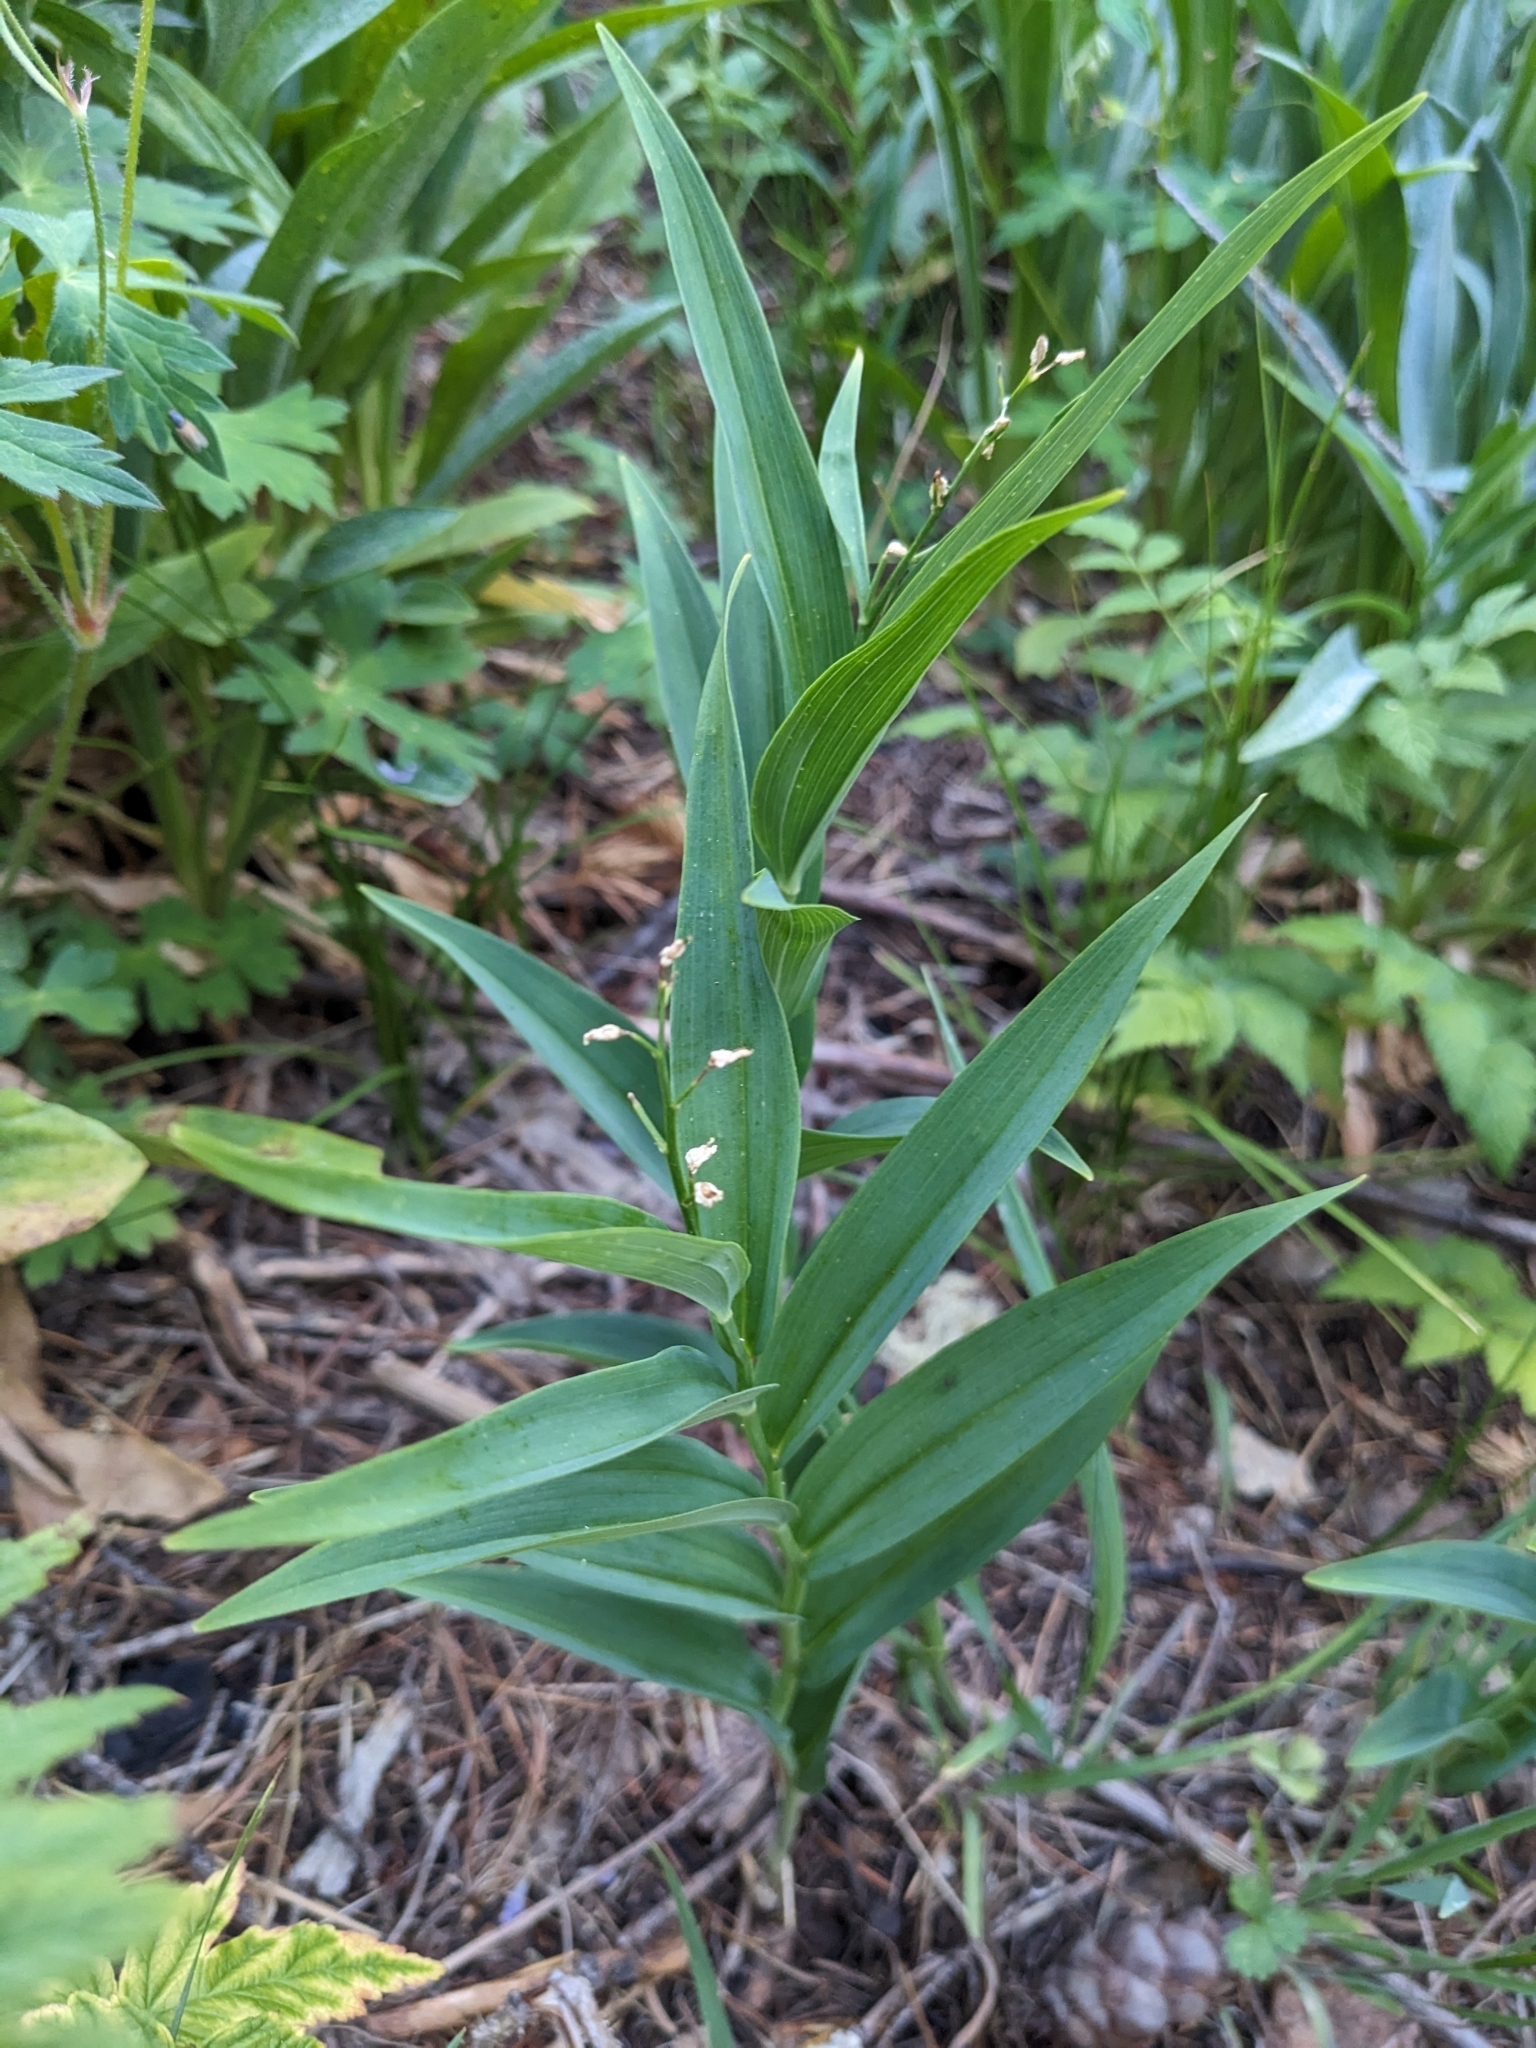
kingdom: Plantae
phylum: Tracheophyta
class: Liliopsida
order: Asparagales
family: Asparagaceae
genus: Maianthemum
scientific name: Maianthemum stellatum
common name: Little false solomon's seal
